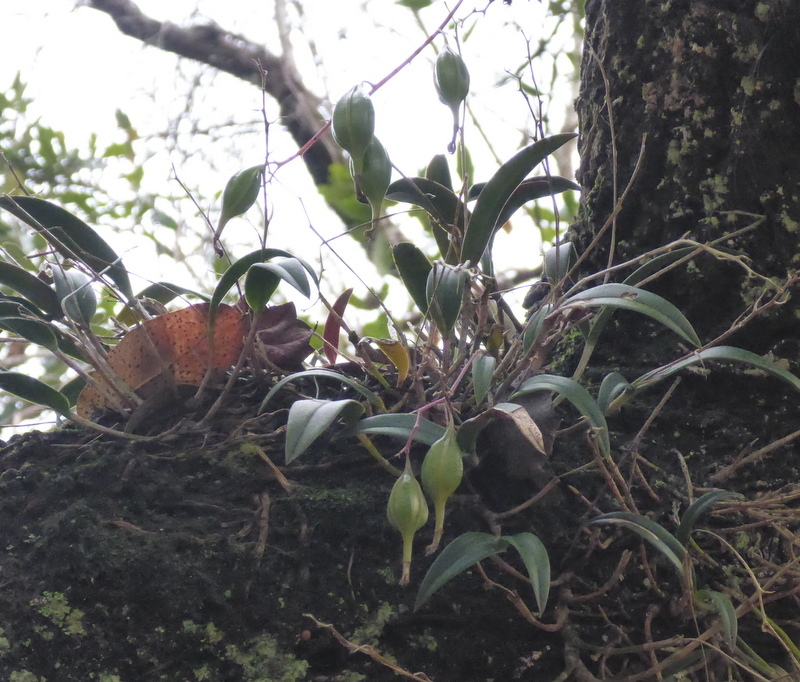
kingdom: Plantae
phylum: Tracheophyta
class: Liliopsida
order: Asparagales
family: Orchidaceae
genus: Epidendrum
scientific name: Epidendrum conopseum
